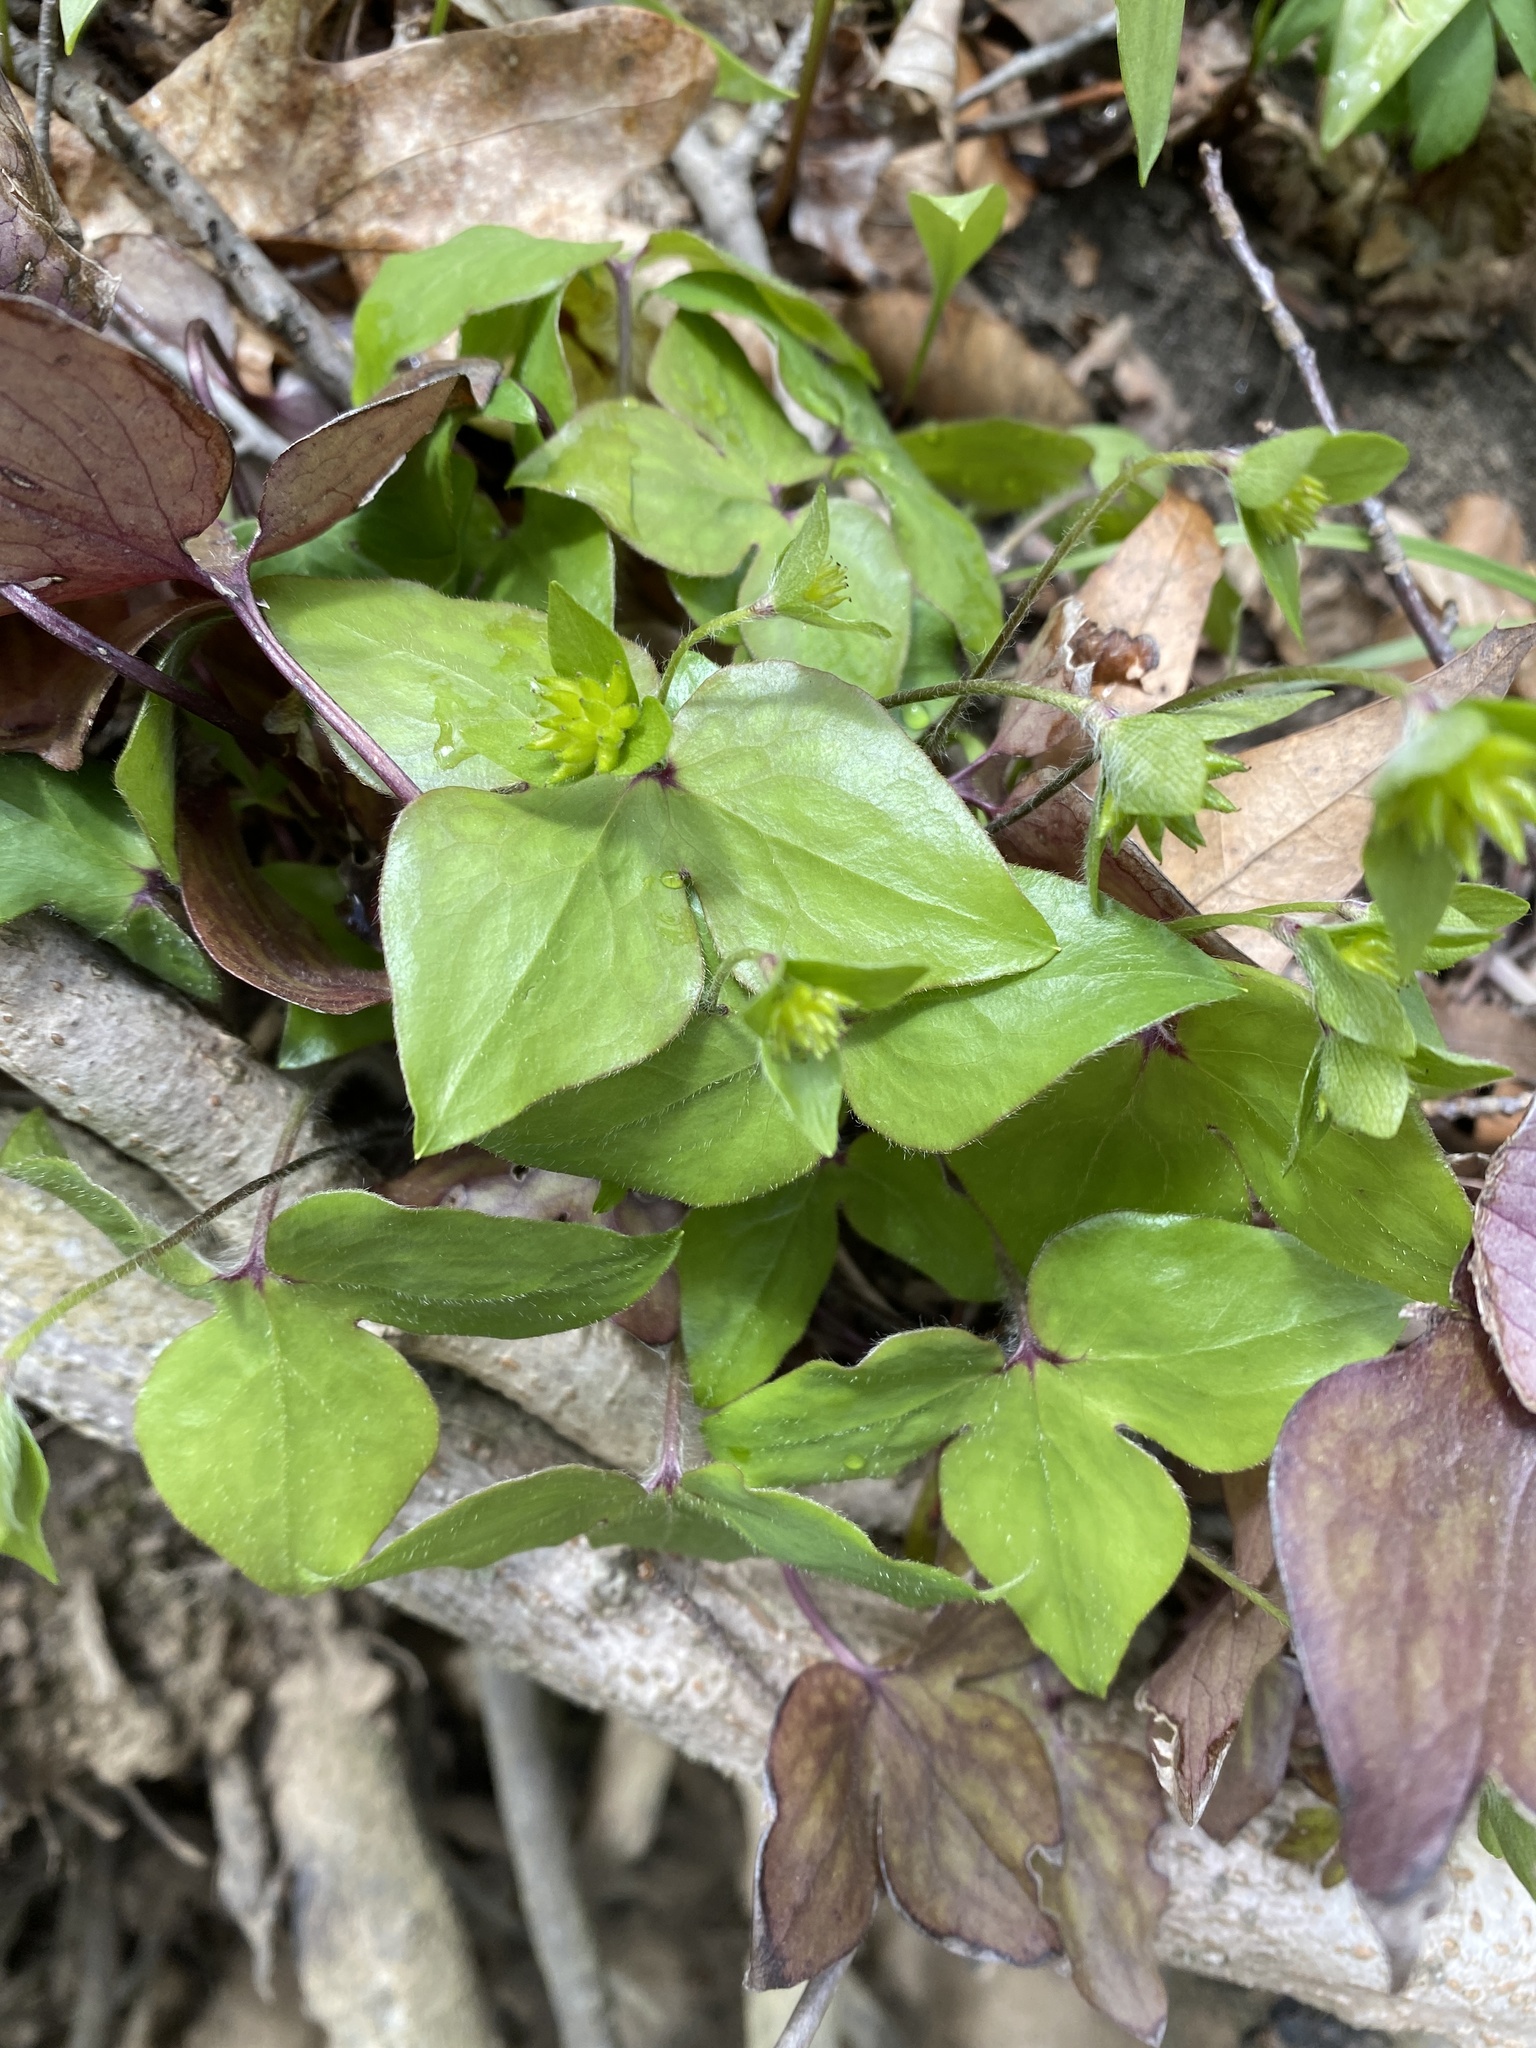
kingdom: Plantae
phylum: Tracheophyta
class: Magnoliopsida
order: Ranunculales
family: Ranunculaceae
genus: Hepatica
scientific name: Hepatica acutiloba
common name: Sharp-lobed hepatica
